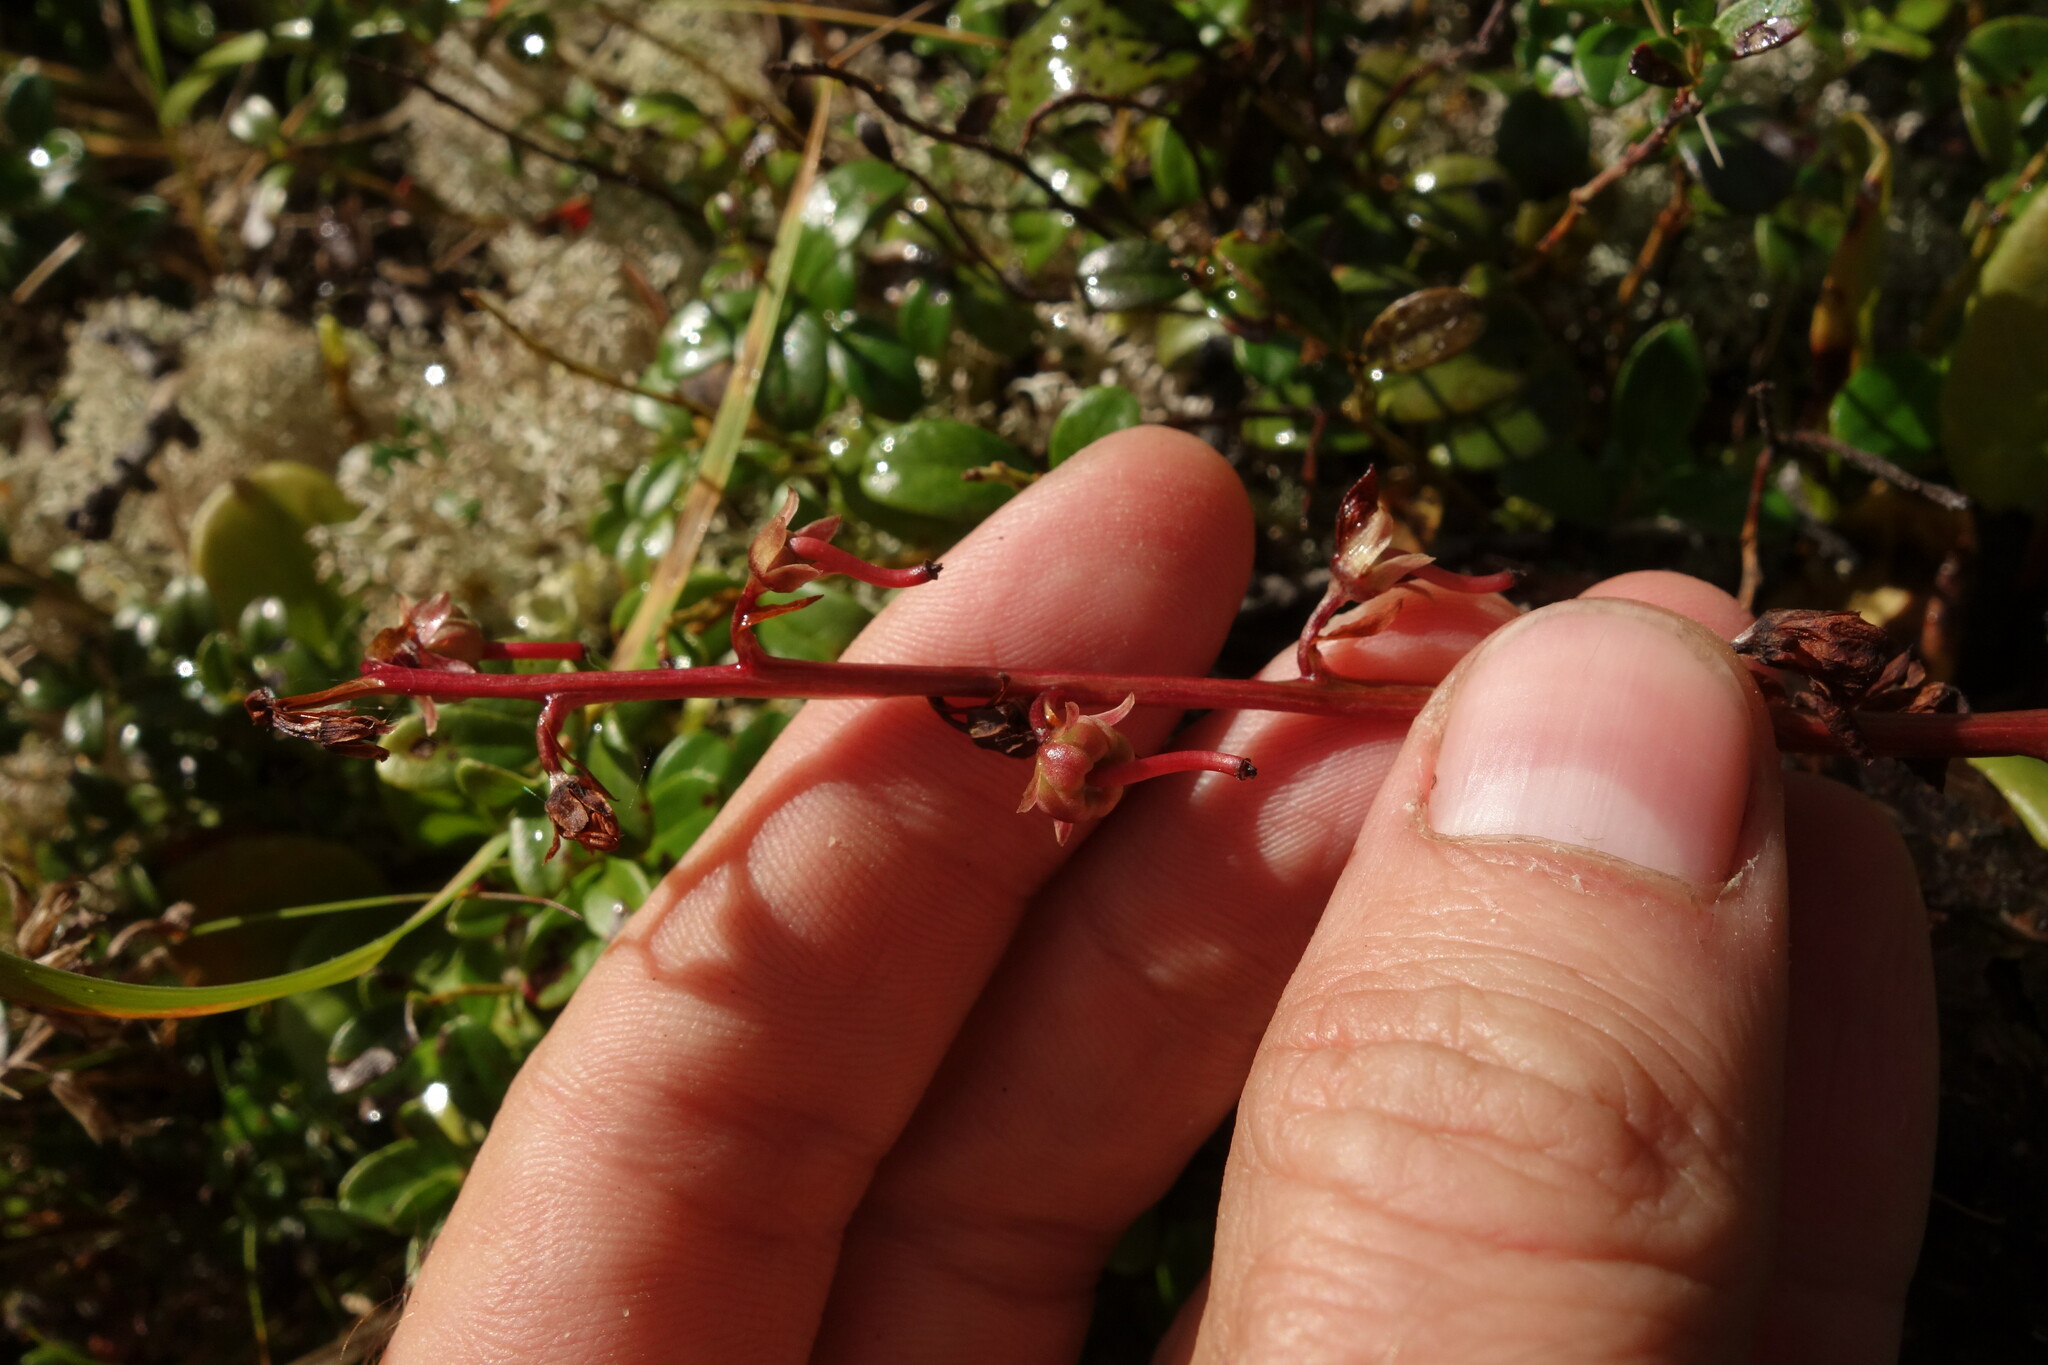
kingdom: Plantae
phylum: Tracheophyta
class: Magnoliopsida
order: Ericales
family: Ericaceae
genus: Pyrola
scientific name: Pyrola asarifolia
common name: Bog wintergreen
